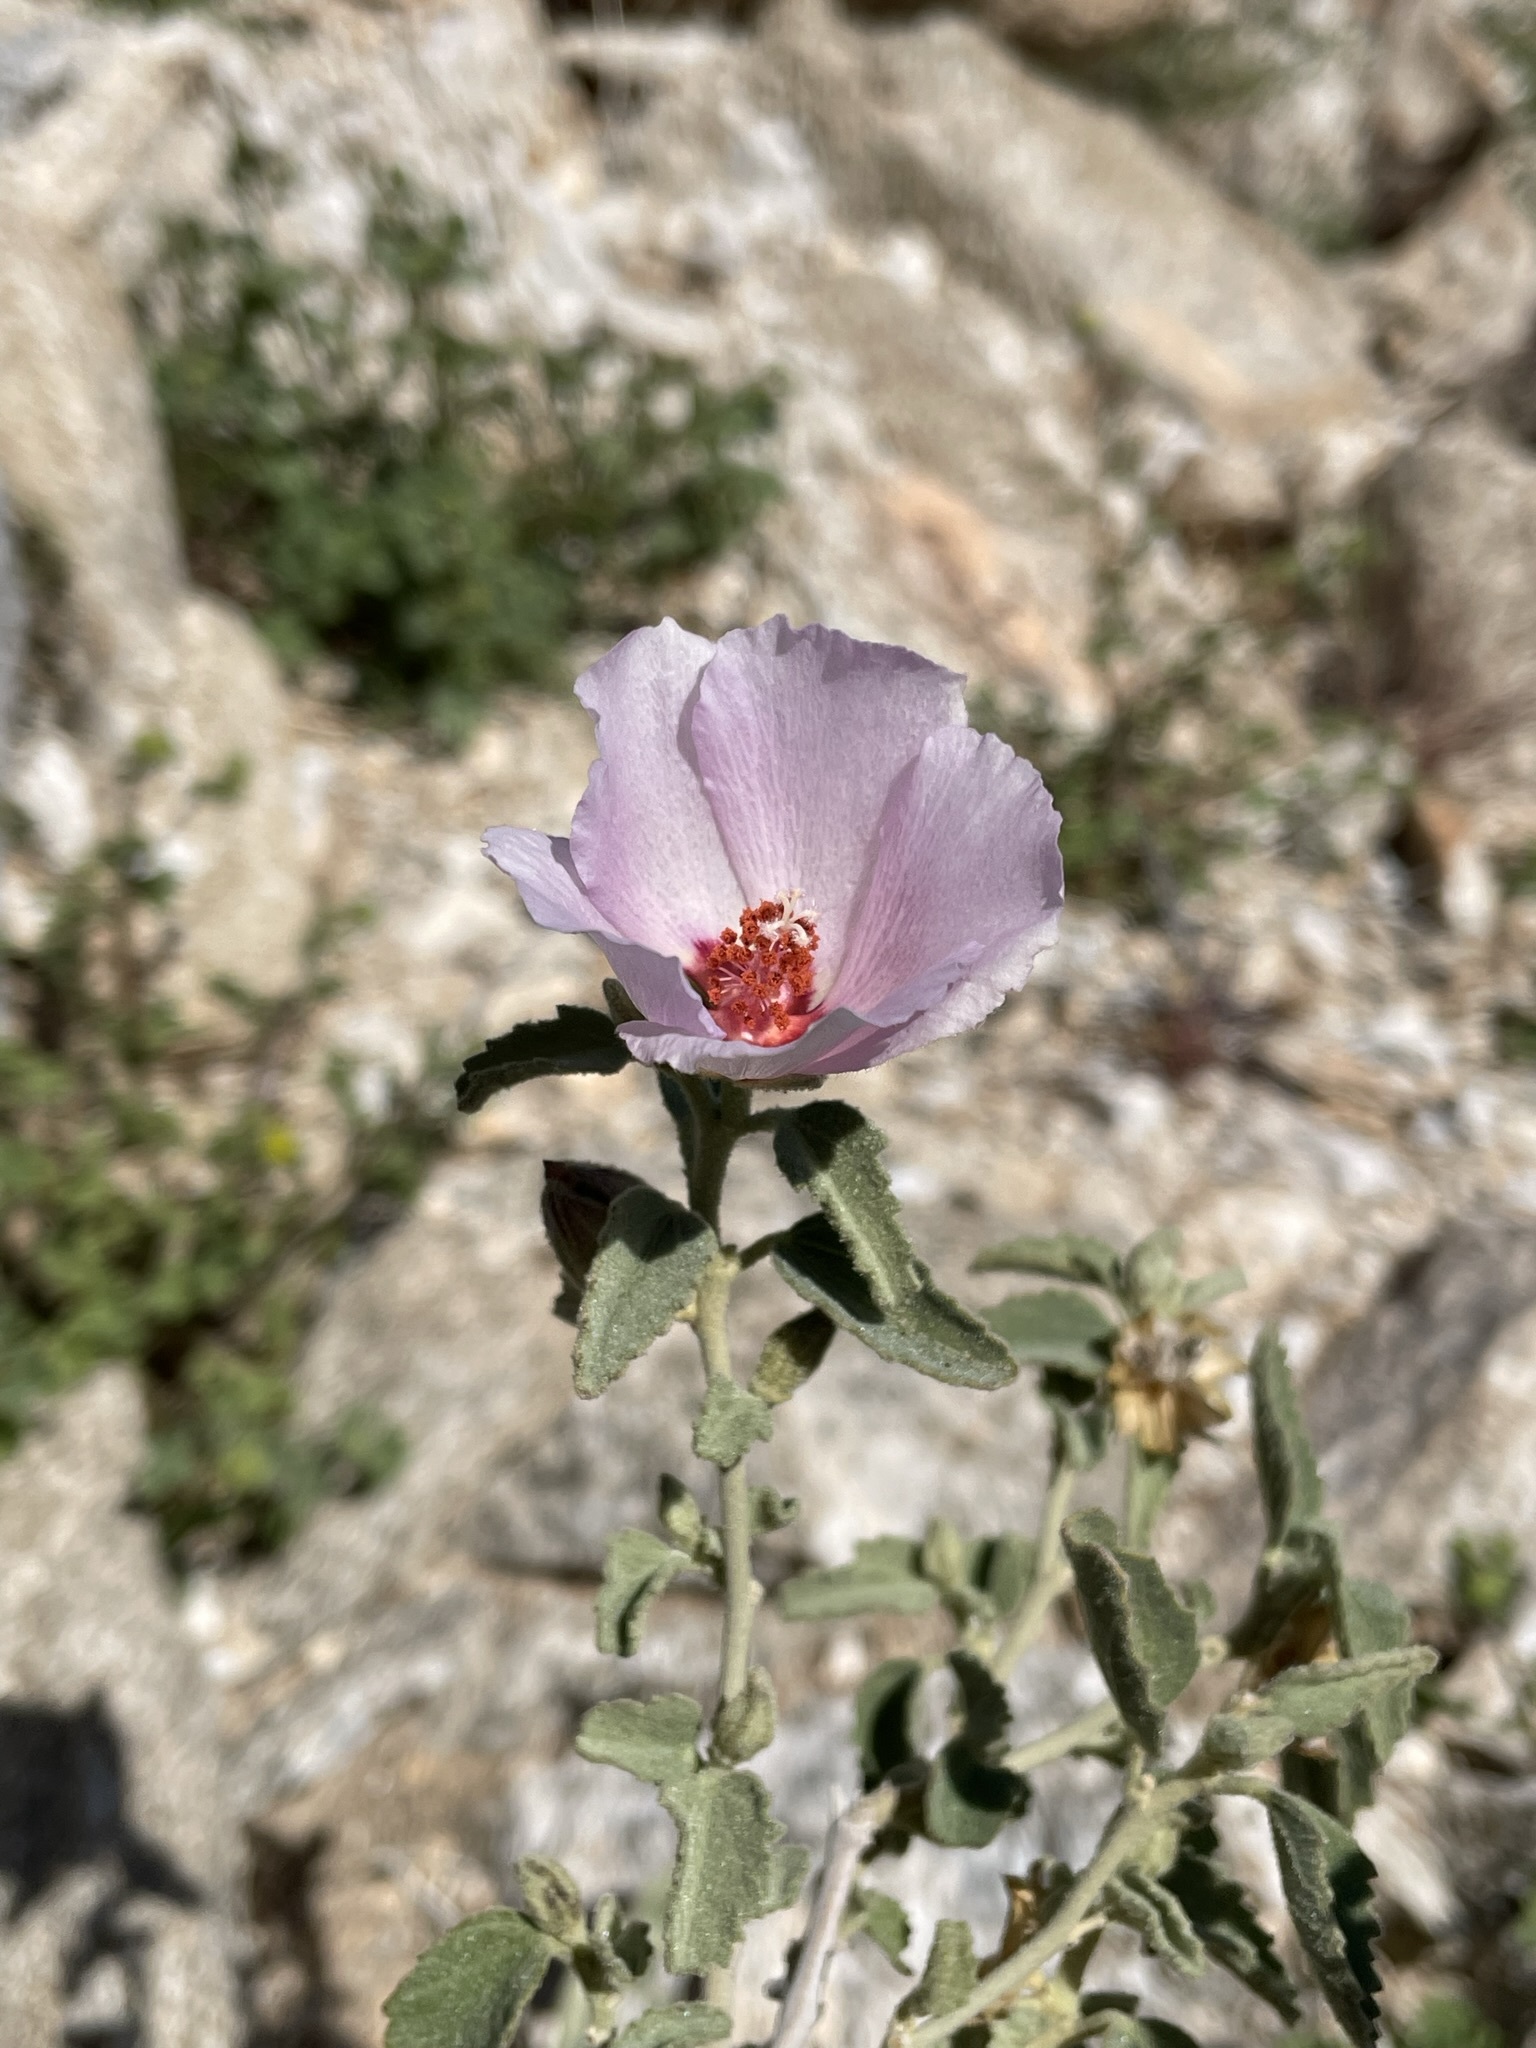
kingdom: Plantae
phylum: Tracheophyta
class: Magnoliopsida
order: Malvales
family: Malvaceae
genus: Hibiscus
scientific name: Hibiscus denudatus
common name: Paleface
